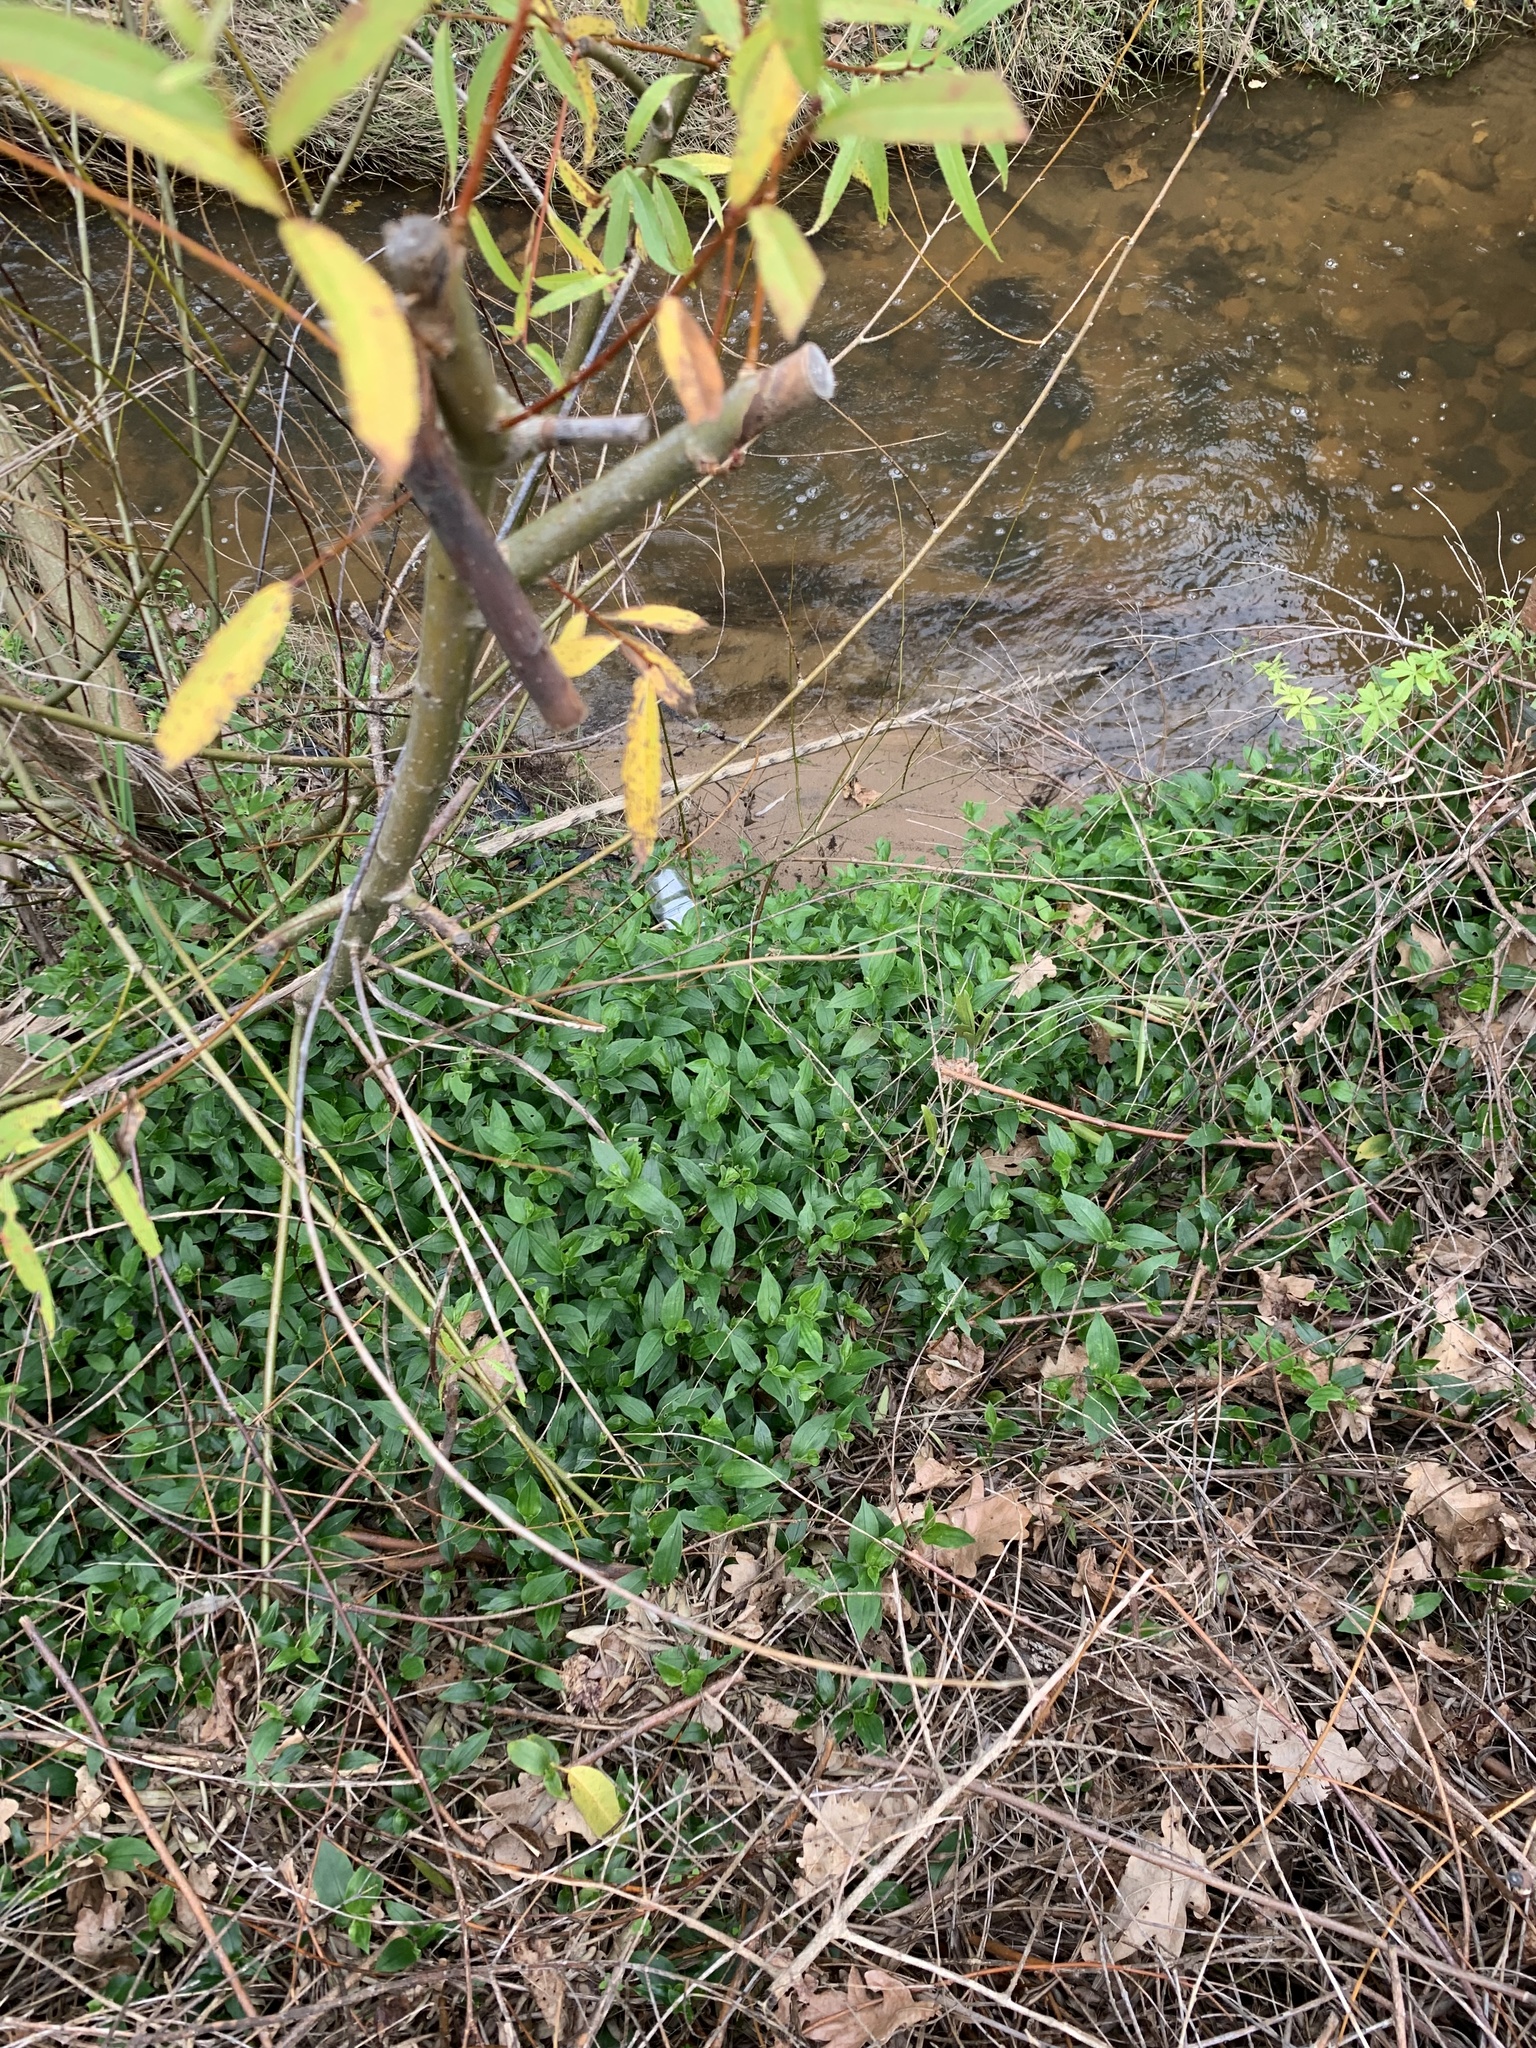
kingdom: Plantae
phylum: Tracheophyta
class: Liliopsida
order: Commelinales
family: Commelinaceae
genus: Tradescantia
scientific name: Tradescantia fluminensis
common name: Wandering-jew
